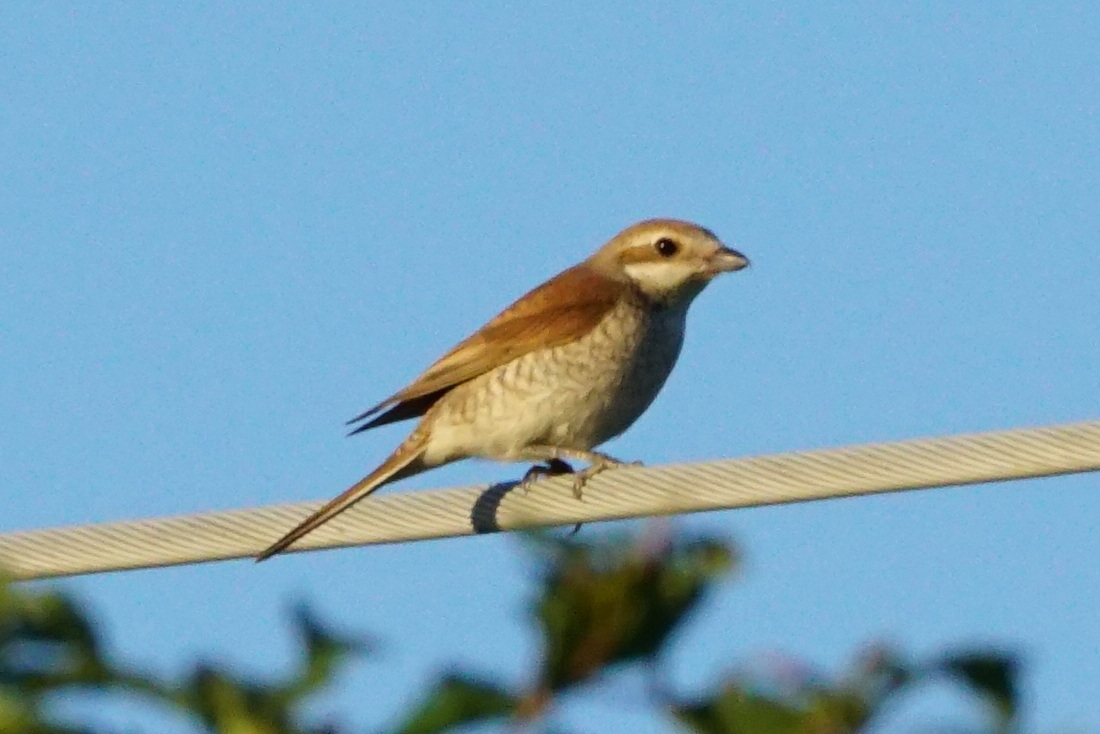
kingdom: Animalia
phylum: Chordata
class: Aves
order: Passeriformes
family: Laniidae
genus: Lanius
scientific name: Lanius collurio
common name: Red-backed shrike
